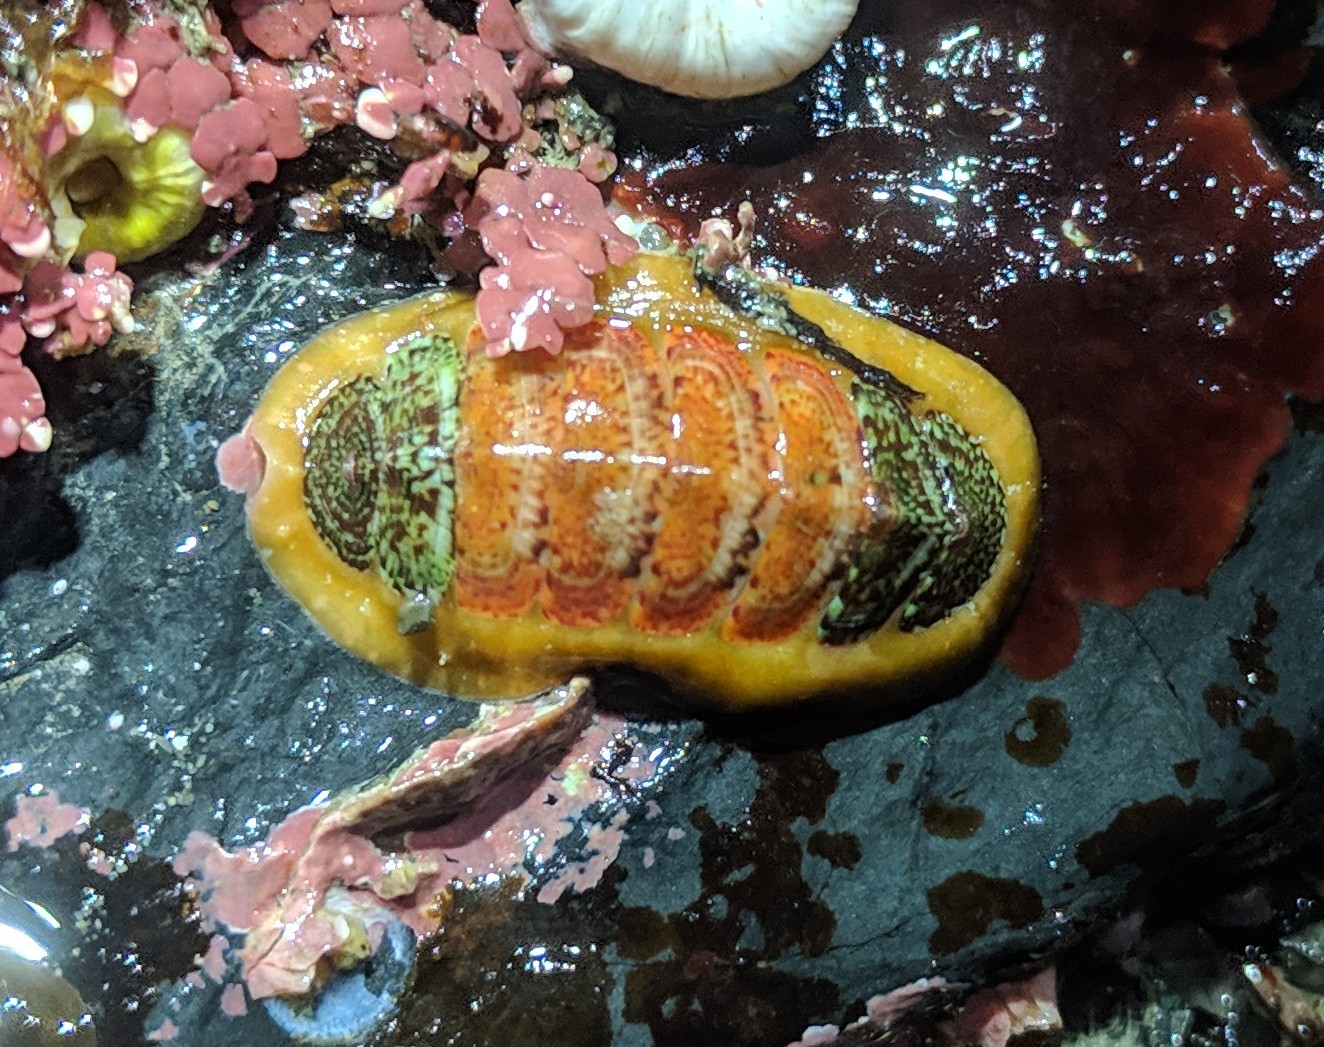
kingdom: Animalia
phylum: Mollusca
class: Polyplacophora
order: Chitonida
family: Mopaliidae
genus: Dendrochiton
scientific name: Dendrochiton flectens
